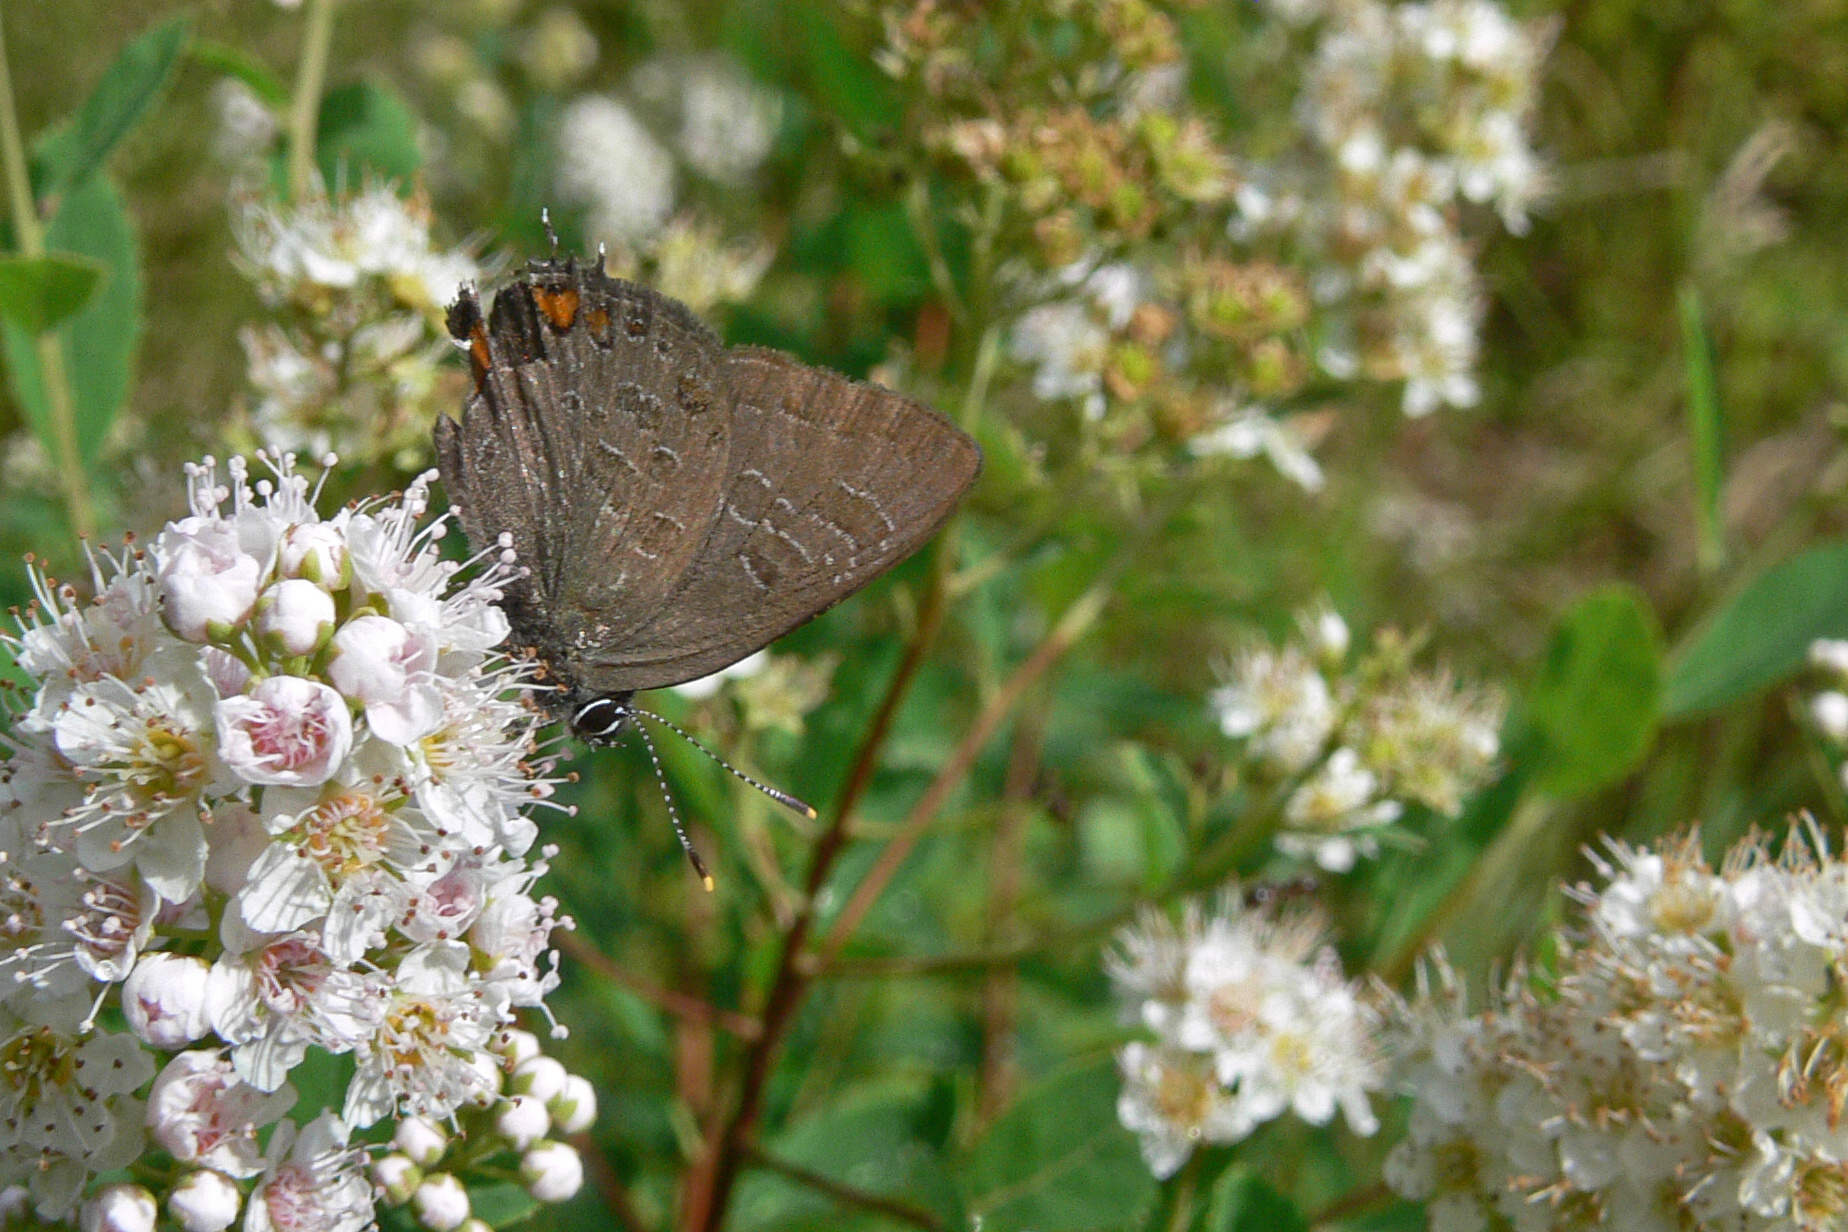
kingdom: Animalia
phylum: Arthropoda
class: Insecta
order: Lepidoptera
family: Lycaenidae
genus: Satyrium
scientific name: Satyrium liparops
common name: Striped hairstreak
